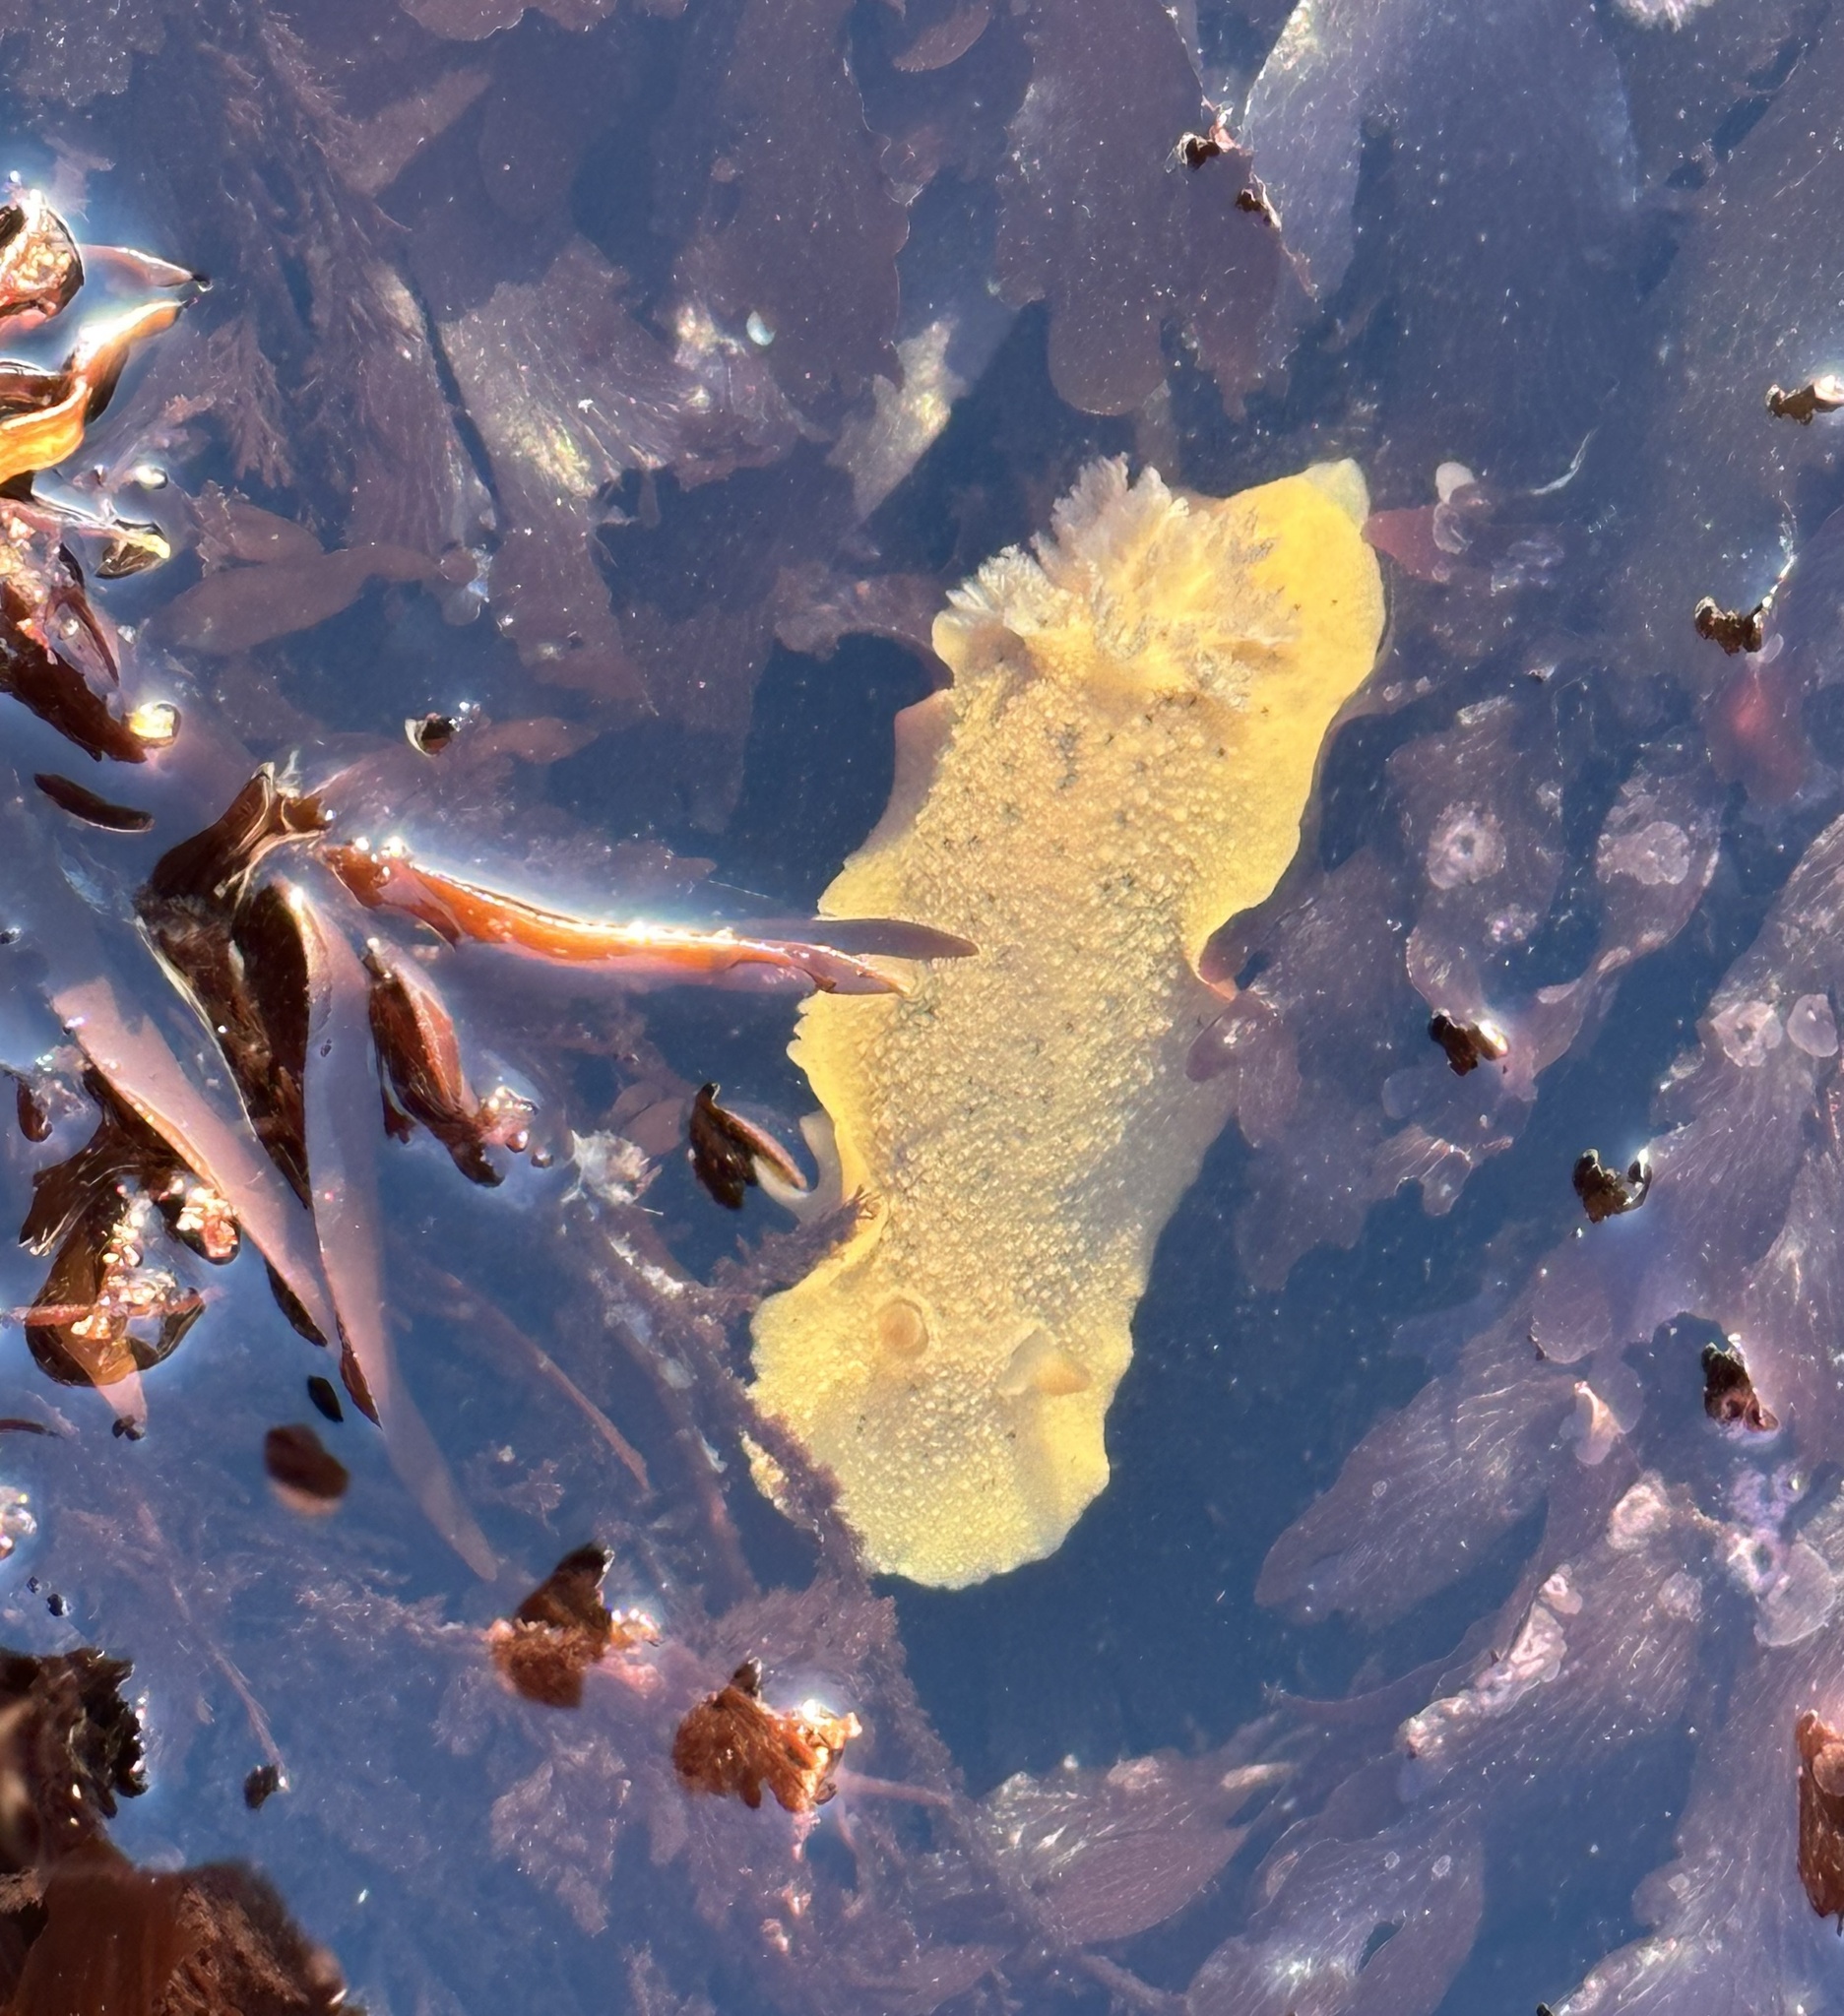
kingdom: Animalia
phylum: Mollusca
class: Gastropoda
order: Nudibranchia
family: Discodorididae
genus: Geitodoris
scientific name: Geitodoris heathi
